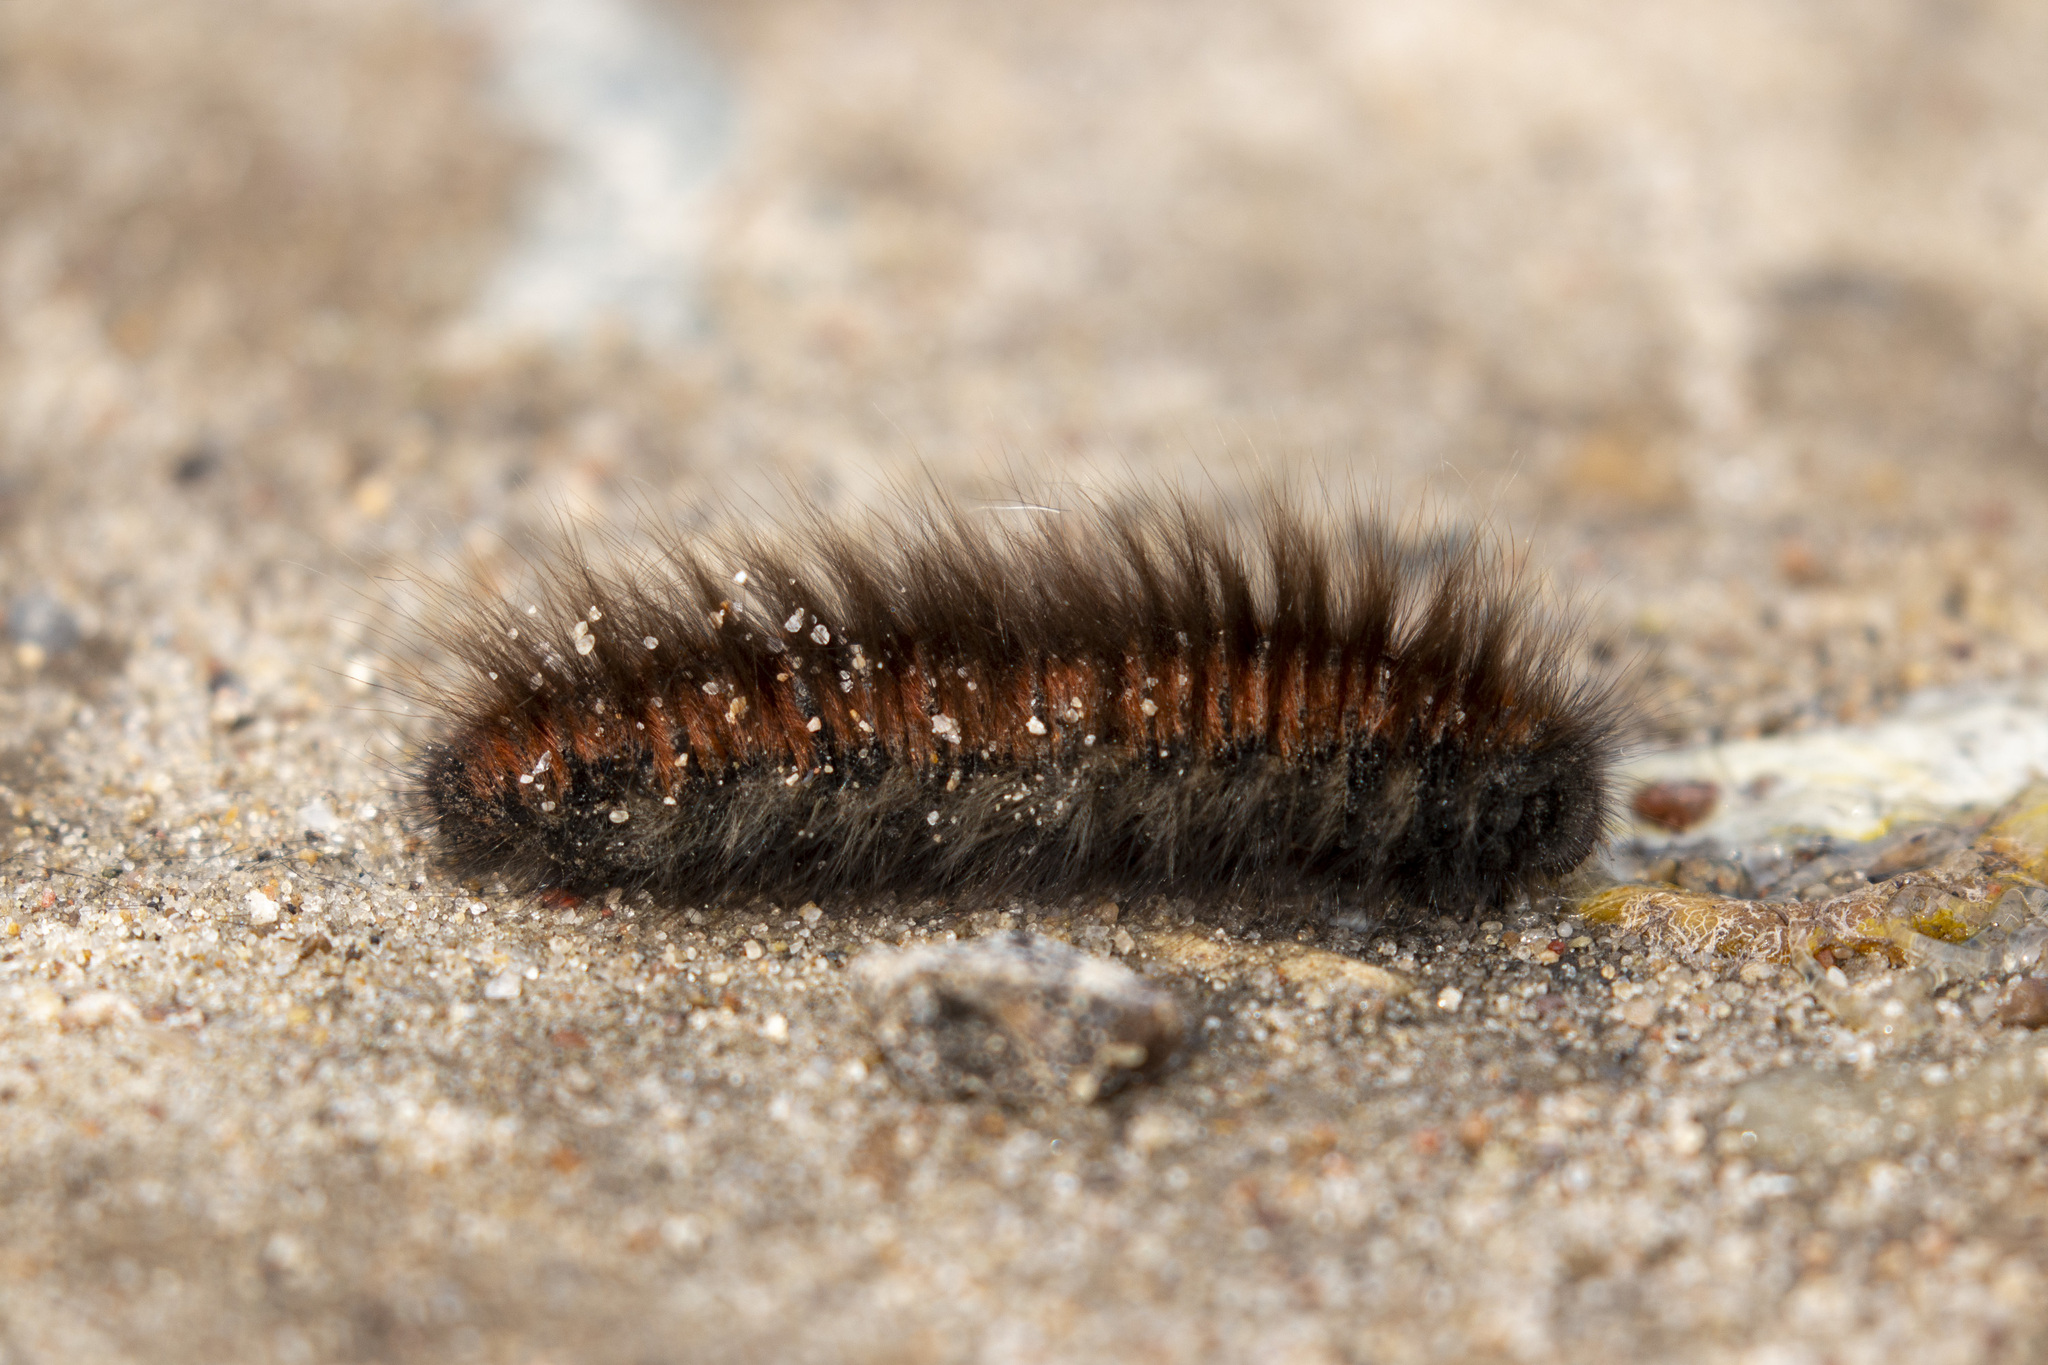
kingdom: Animalia
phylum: Arthropoda
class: Insecta
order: Lepidoptera
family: Lasiocampidae
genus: Macrothylacia
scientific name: Macrothylacia rubi
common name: Fox moth
